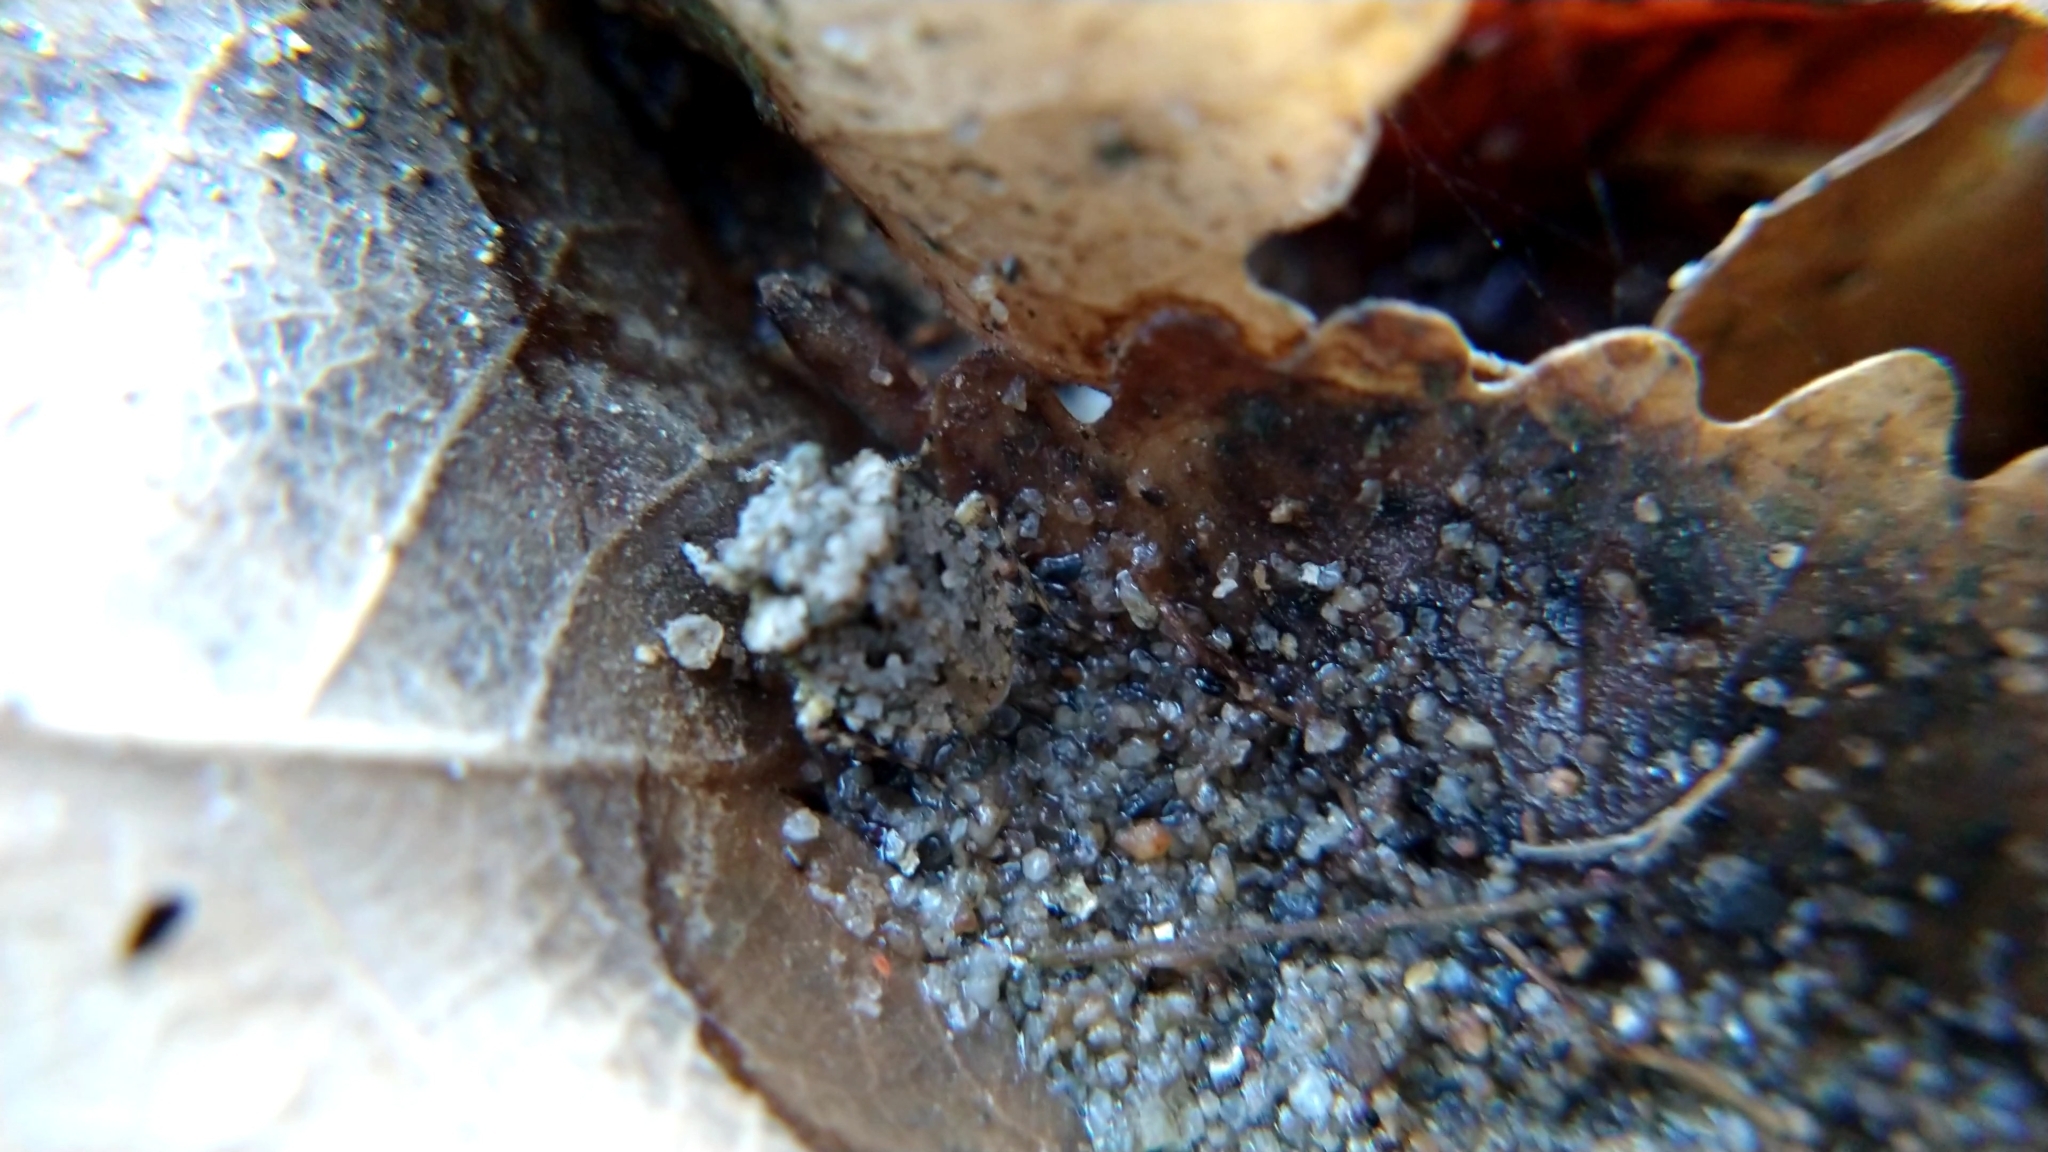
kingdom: Animalia
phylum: Arthropoda
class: Insecta
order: Hemiptera
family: Gelastocoridae
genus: Gelastocoris
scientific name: Gelastocoris oculatus
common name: Toad bug
